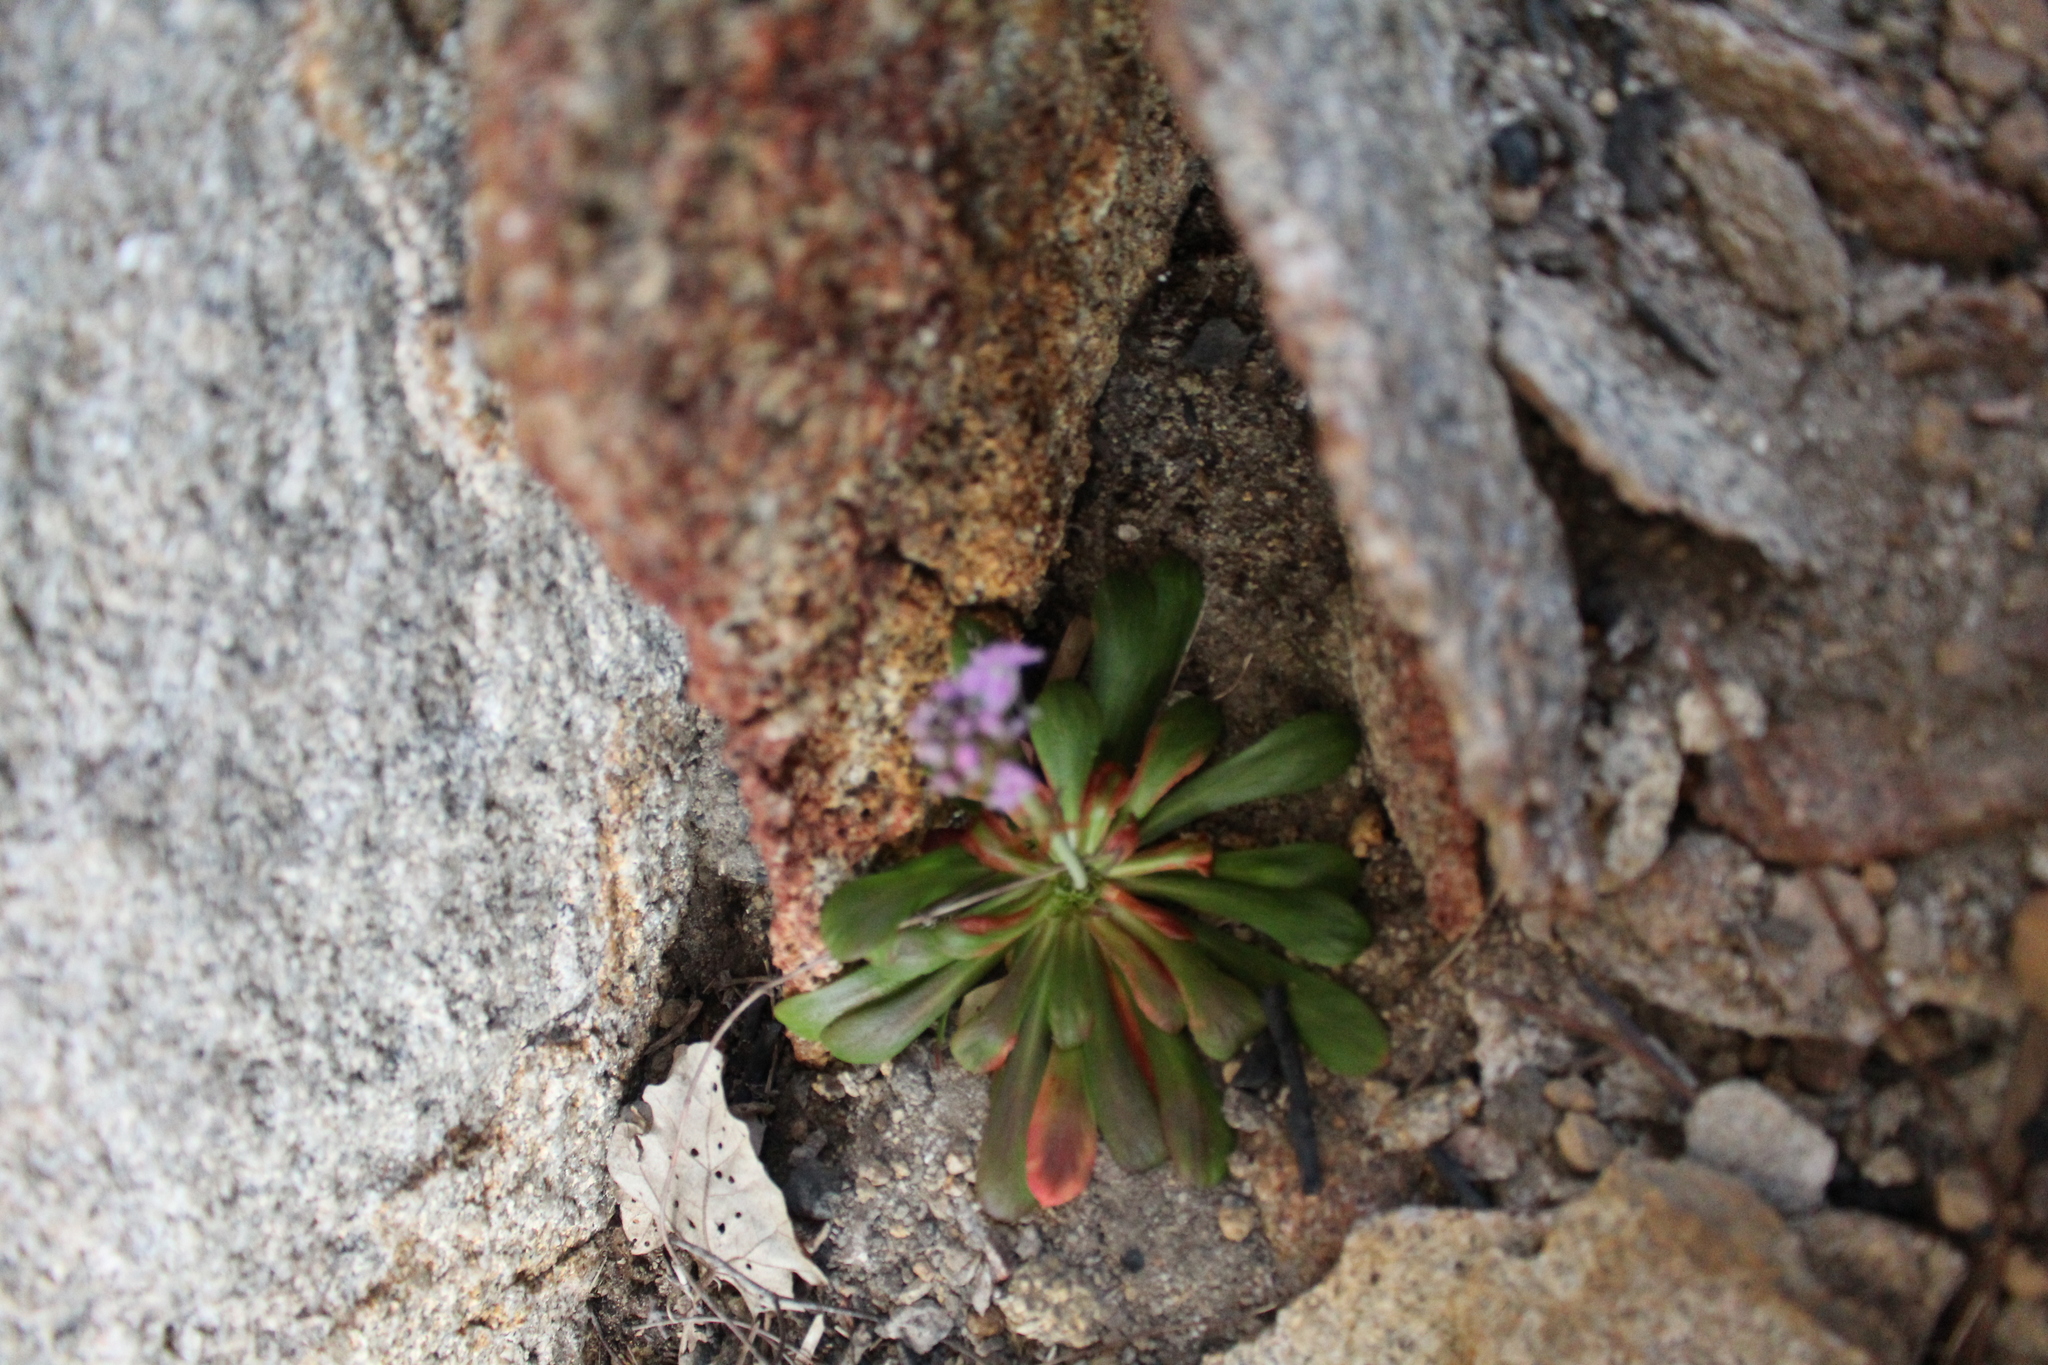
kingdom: Plantae
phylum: Tracheophyta
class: Magnoliopsida
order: Asterales
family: Stylidiaceae
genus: Stylidium
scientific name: Stylidium articulatum
